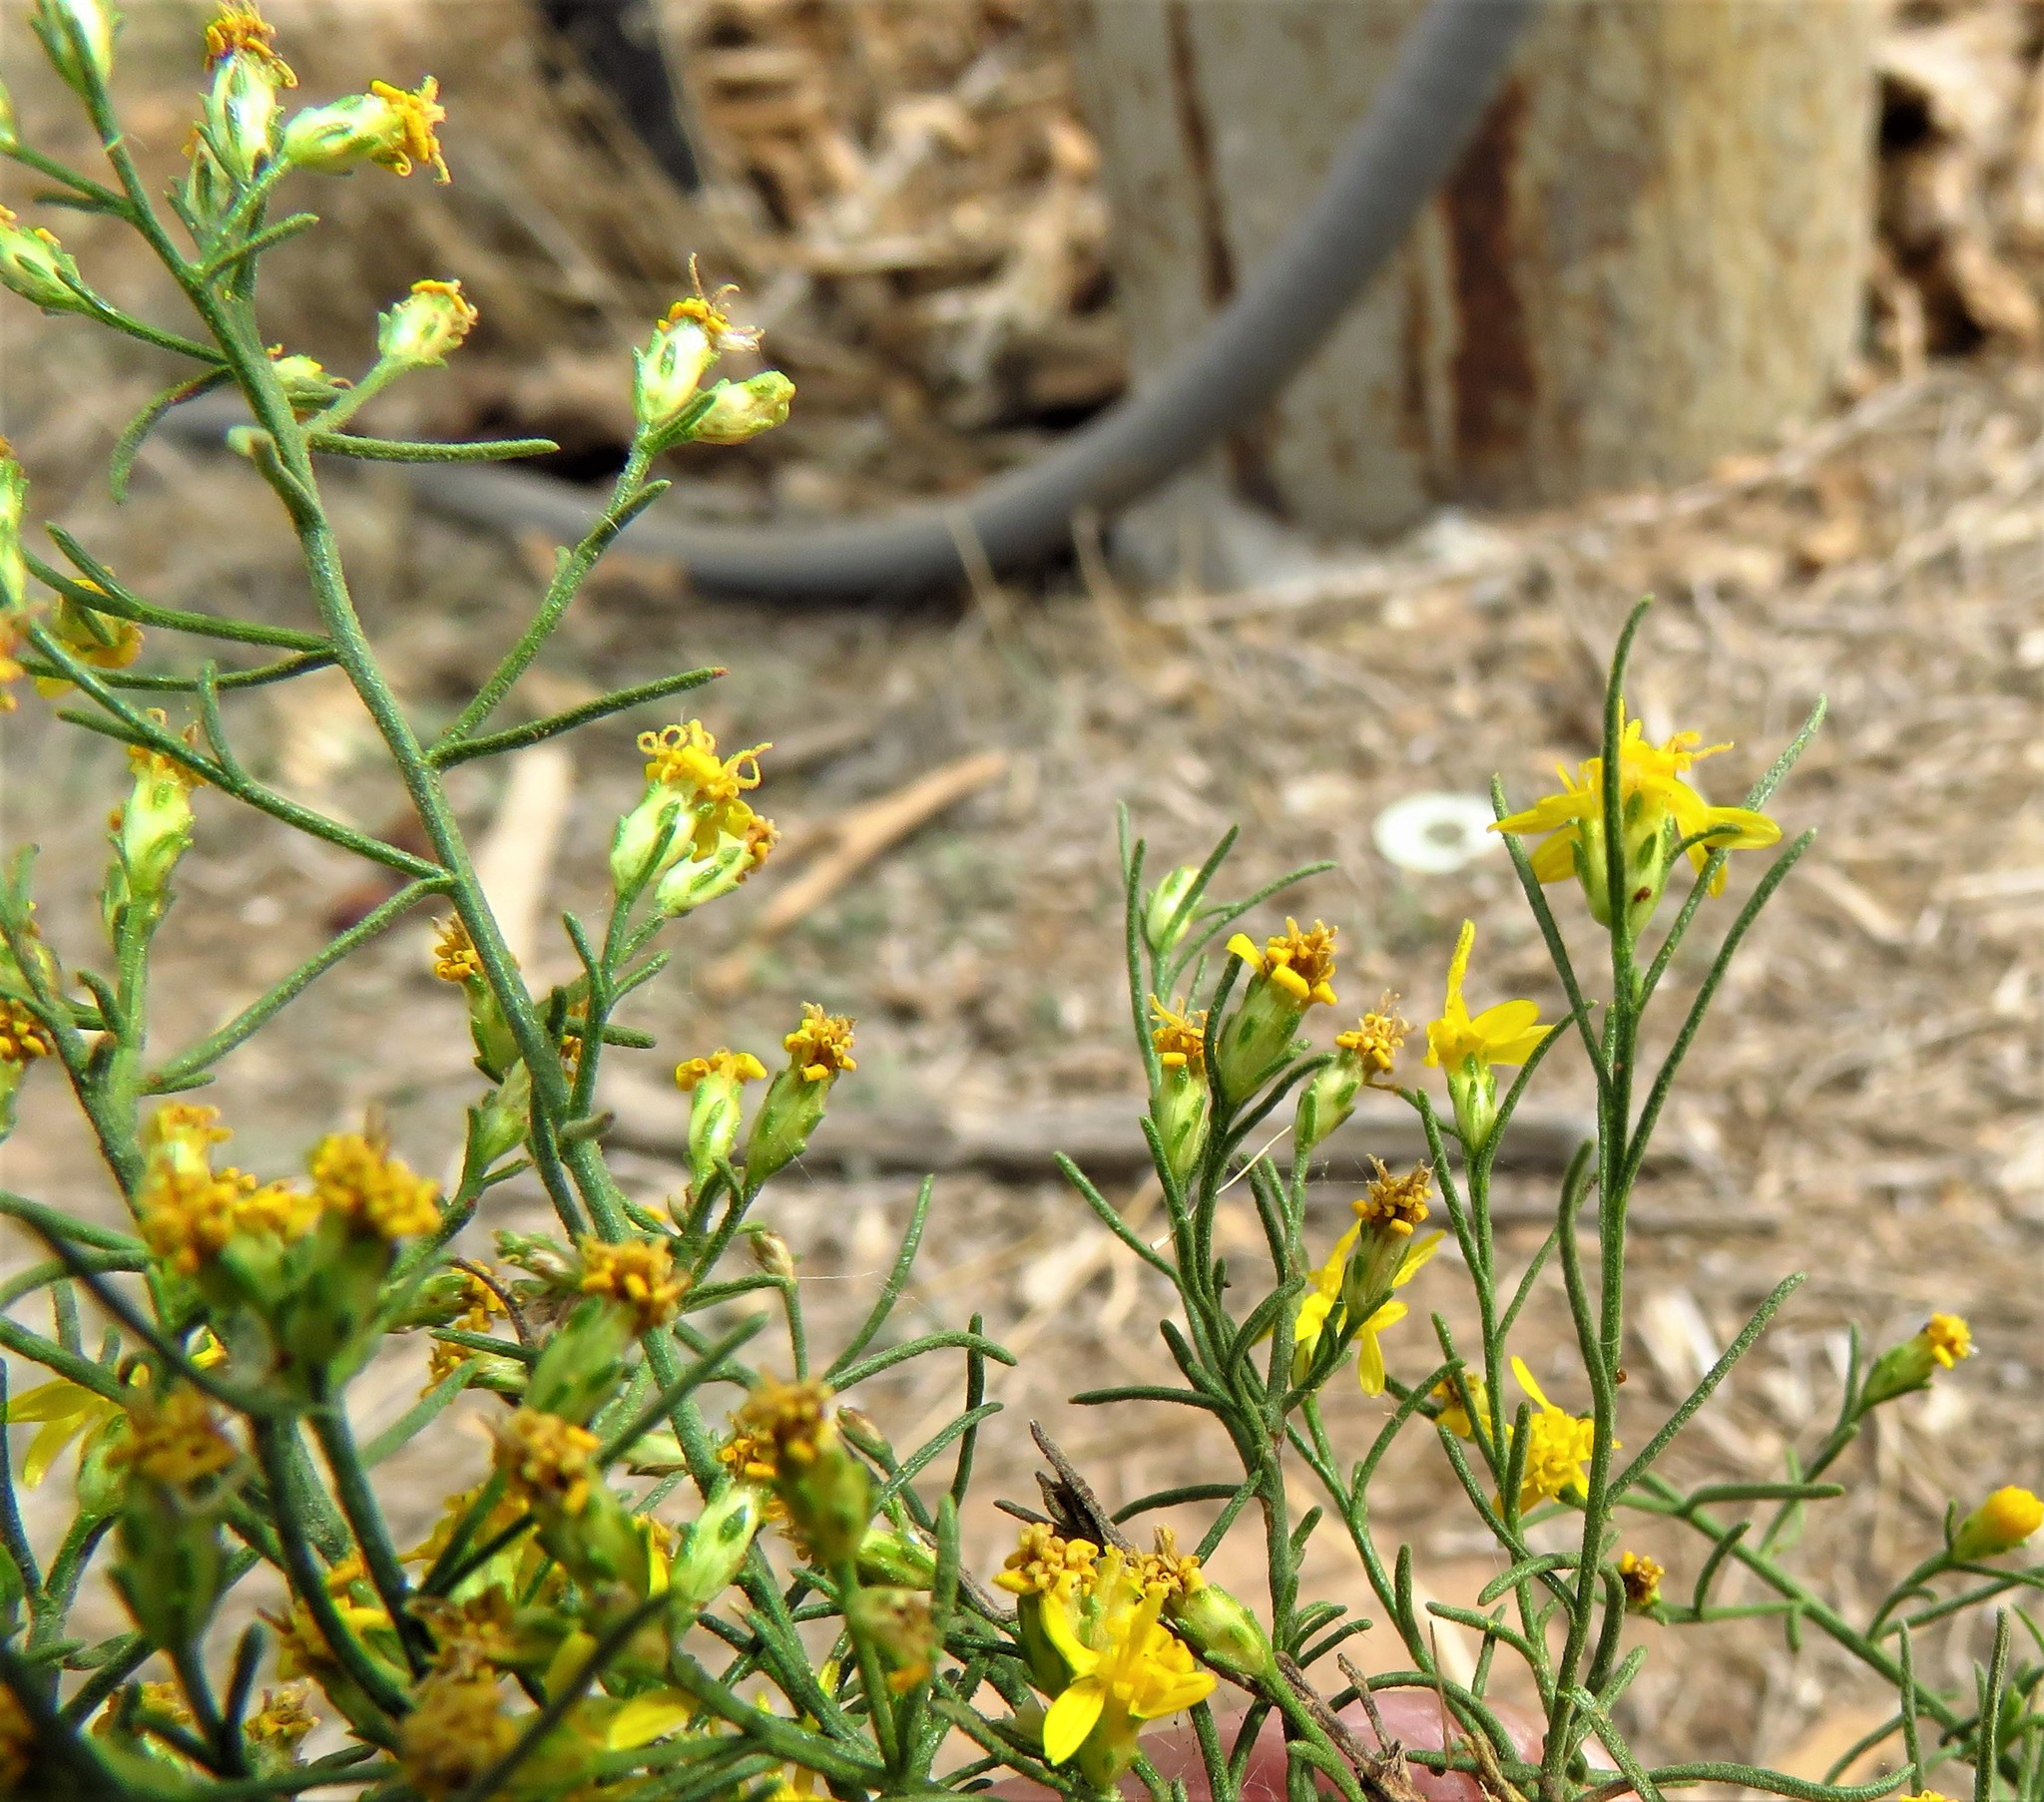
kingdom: Plantae
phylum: Tracheophyta
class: Magnoliopsida
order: Asterales
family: Asteraceae
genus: Gutierrezia
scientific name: Gutierrezia sarothrae
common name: Broom snakeweed
